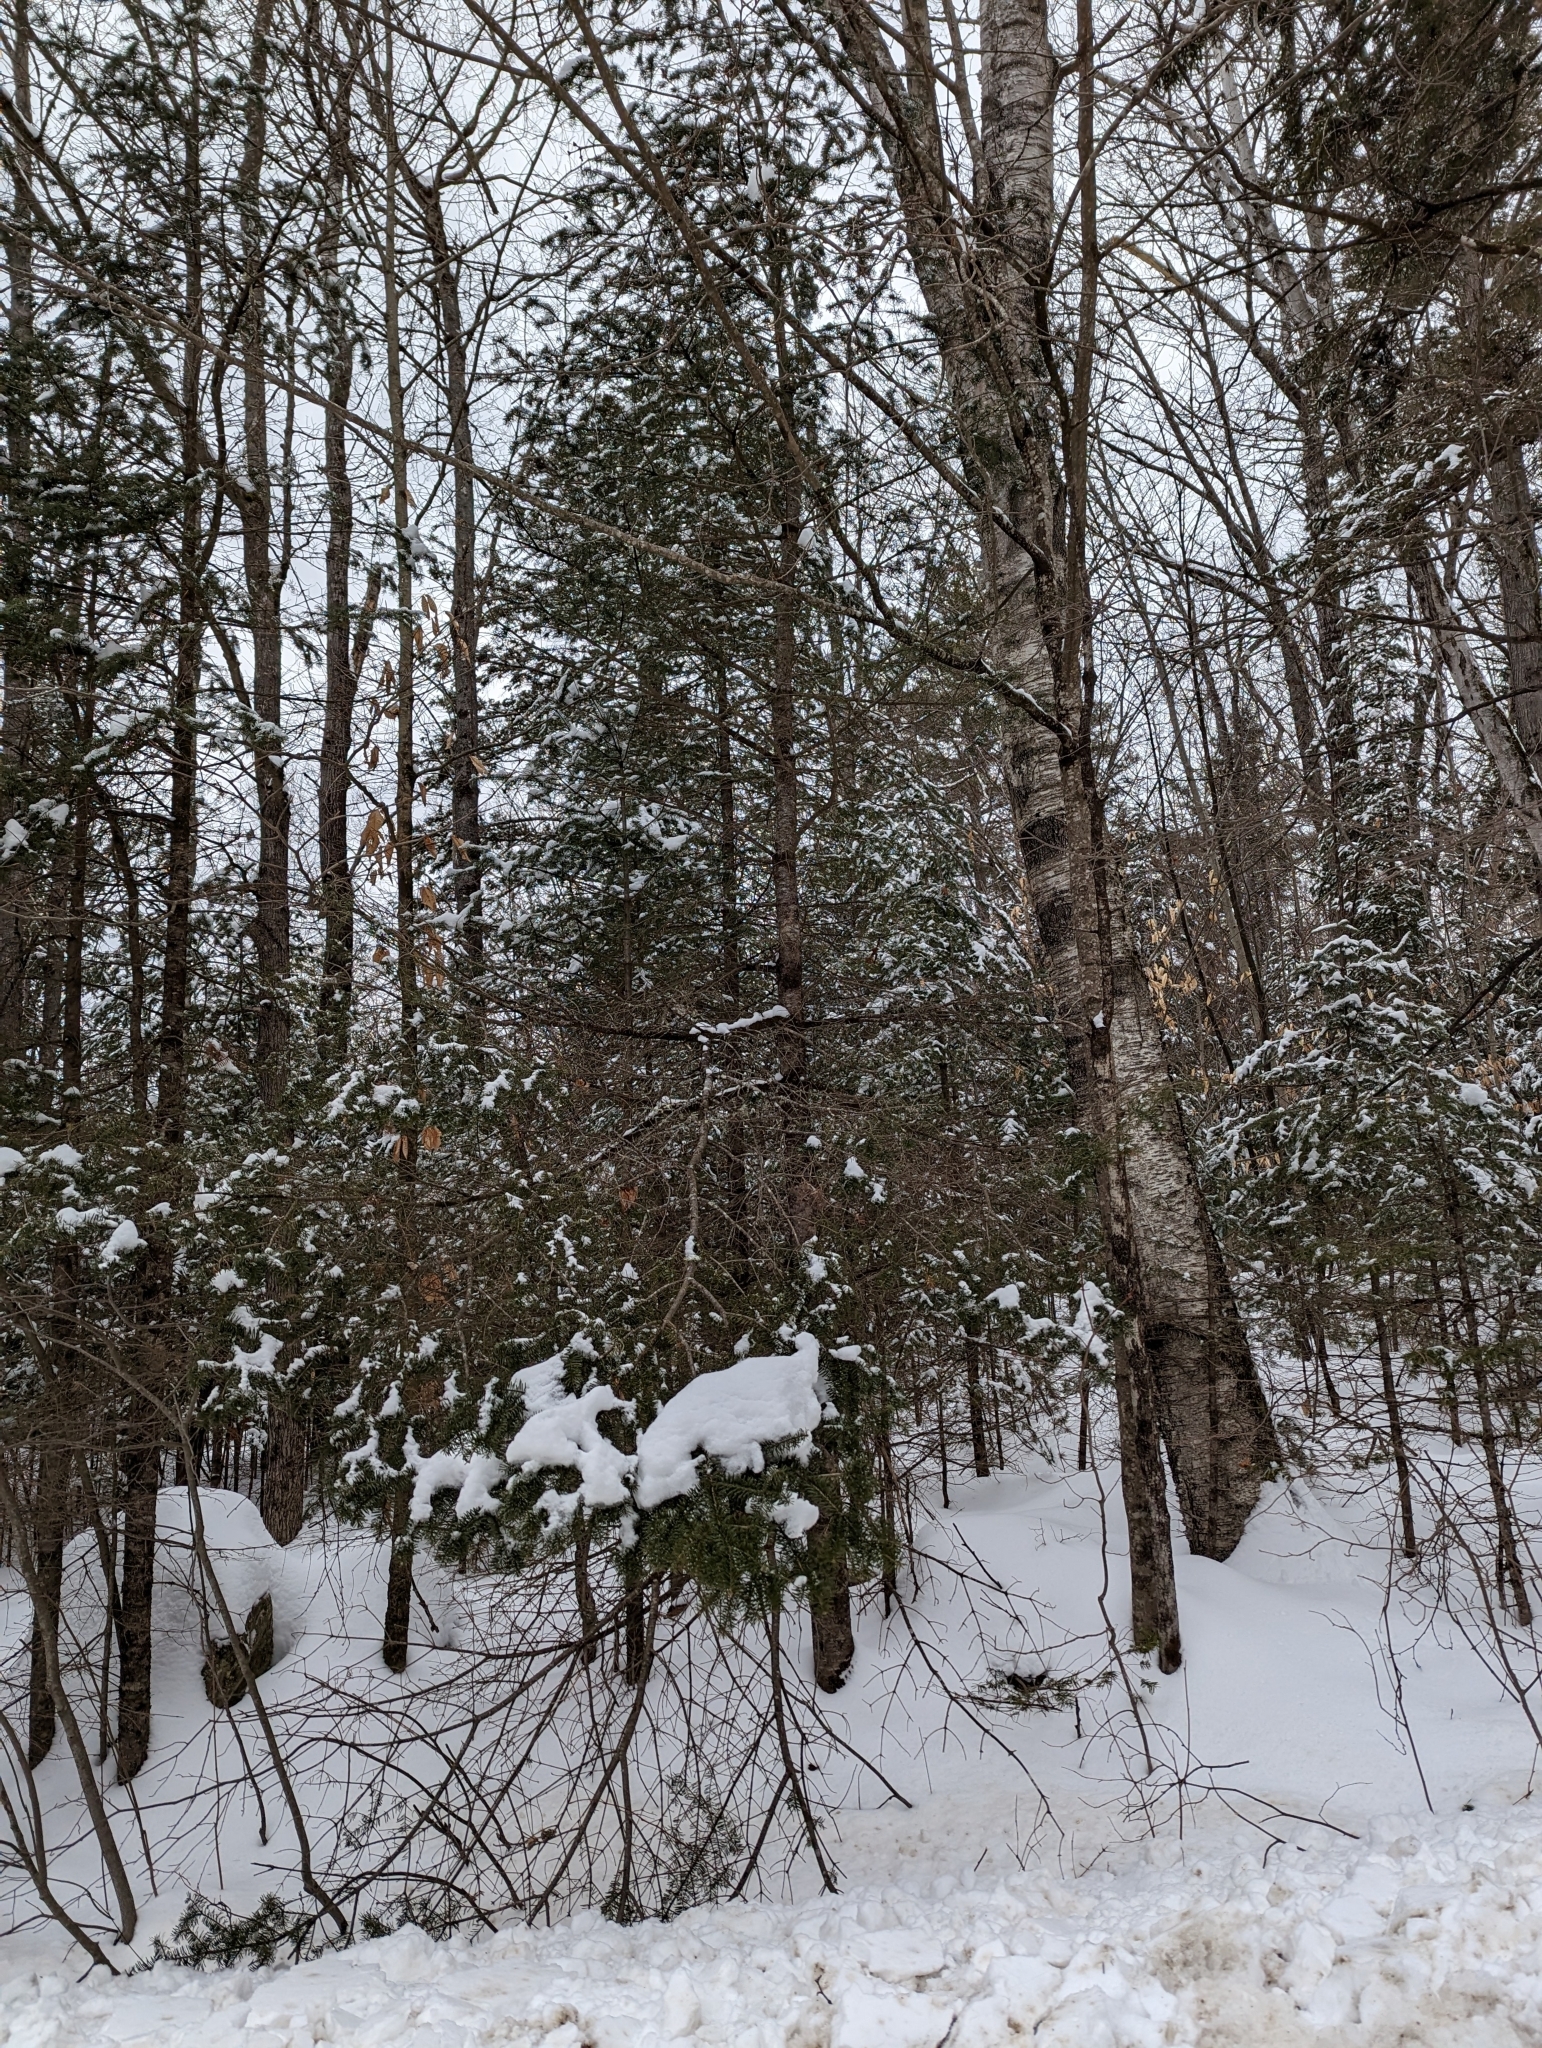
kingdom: Plantae
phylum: Tracheophyta
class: Pinopsida
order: Pinales
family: Pinaceae
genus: Abies
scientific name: Abies balsamea
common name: Balsam fir
